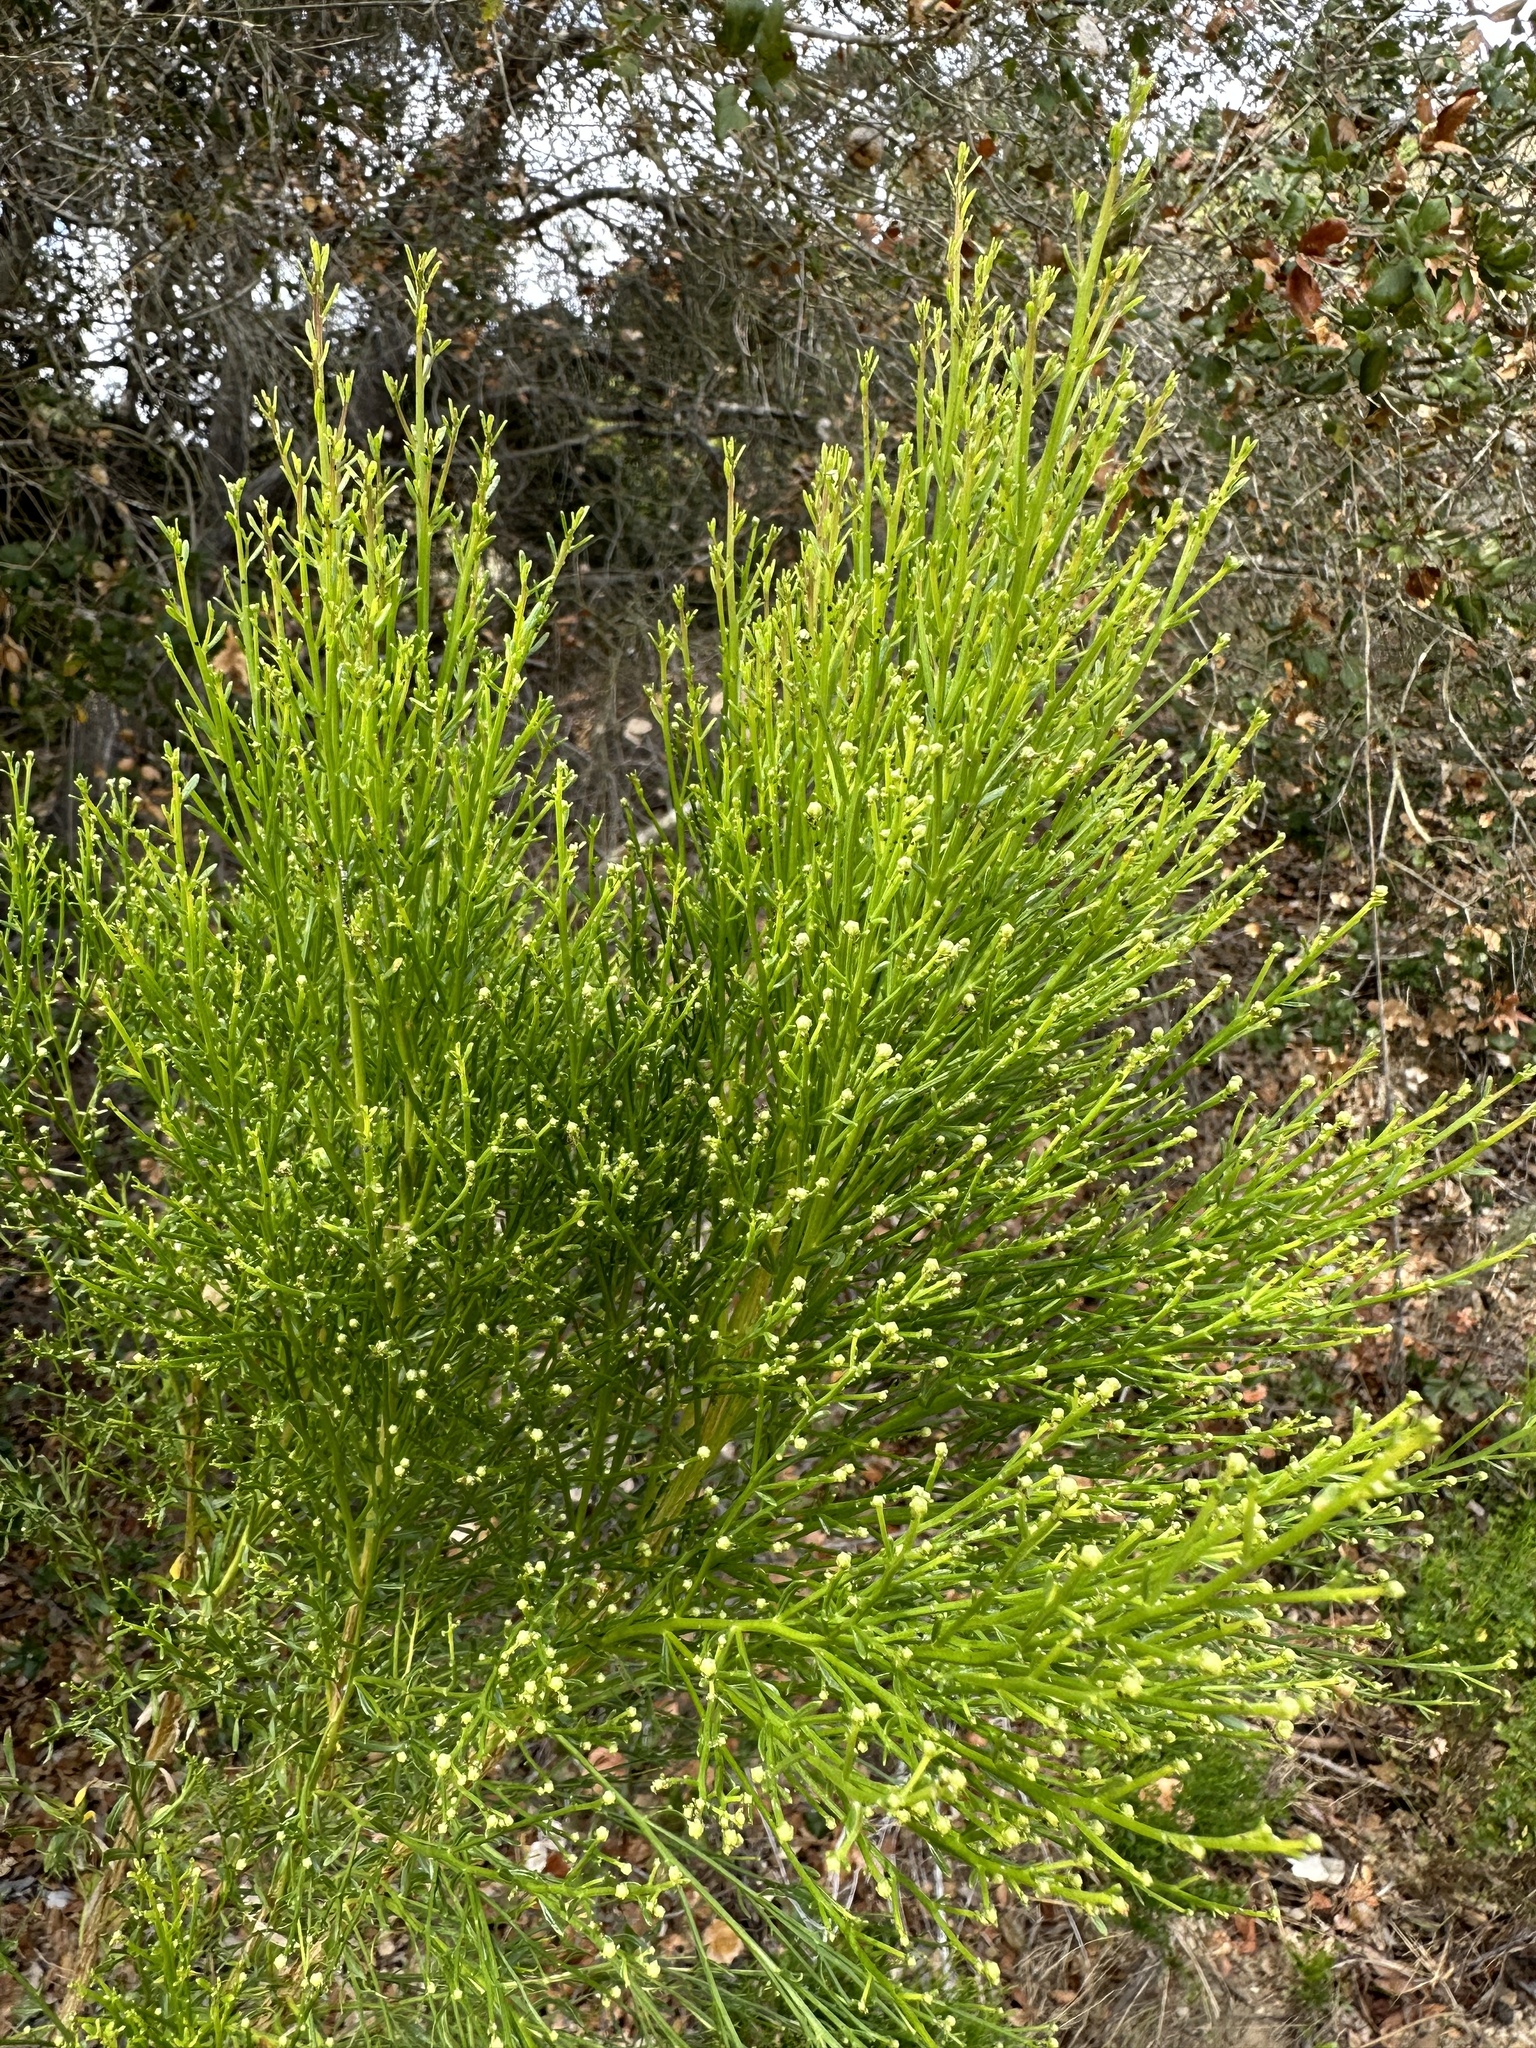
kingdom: Plantae
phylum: Tracheophyta
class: Magnoliopsida
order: Asterales
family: Asteraceae
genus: Baccharis
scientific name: Baccharis sarothroides
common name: Desert-broom
